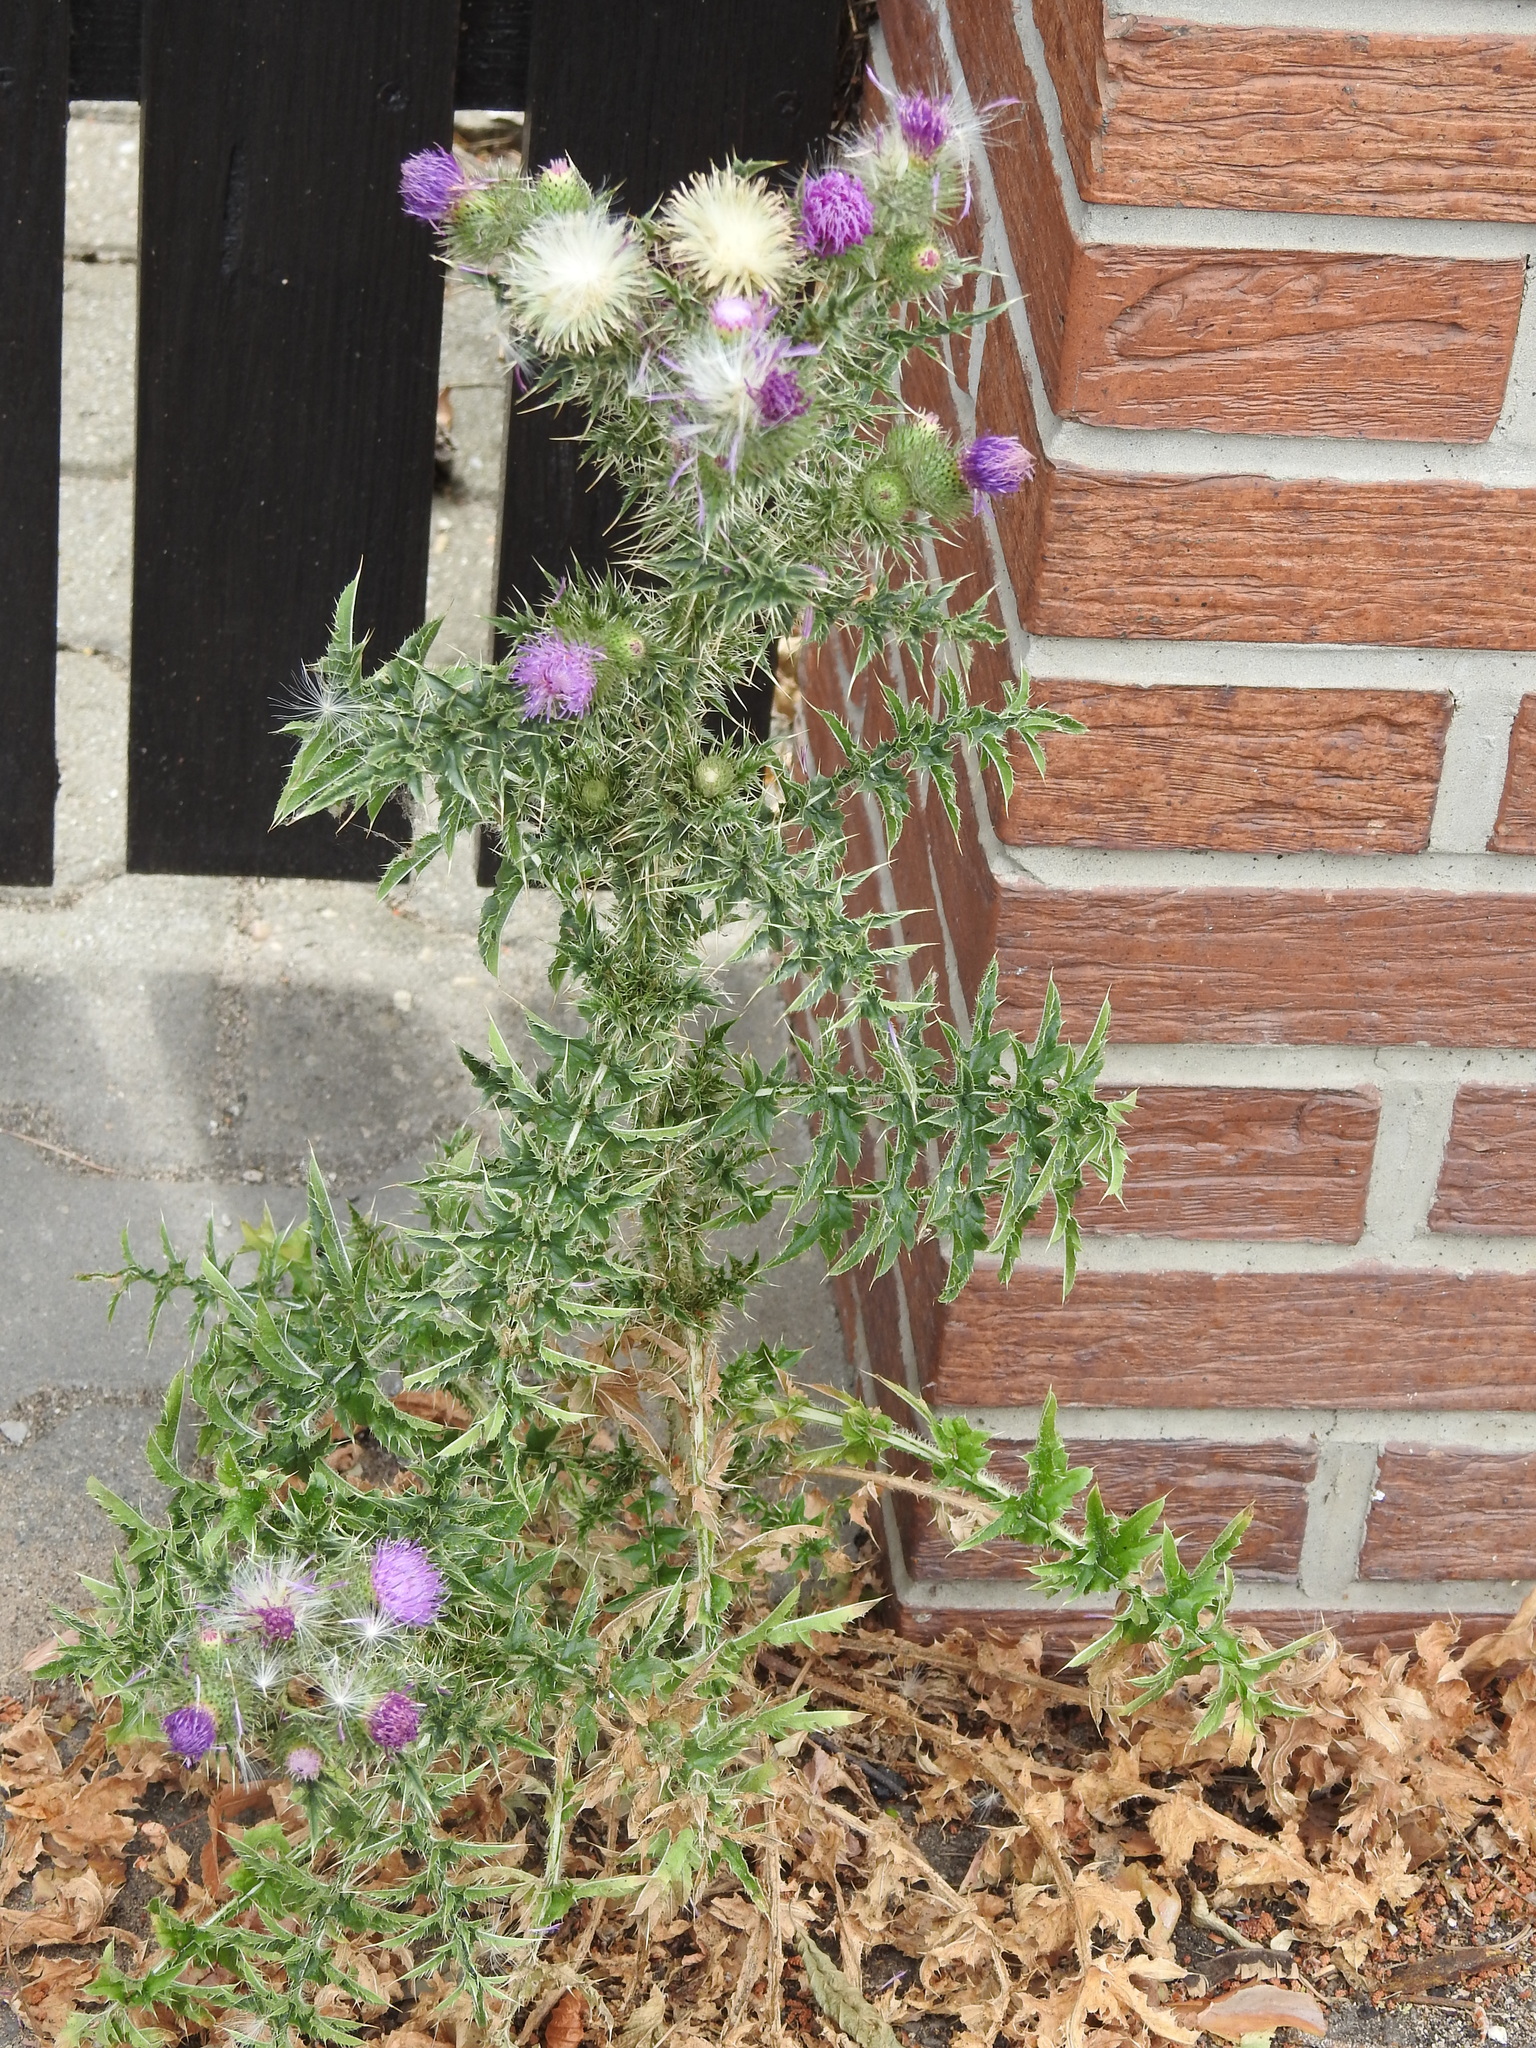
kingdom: Plantae
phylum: Tracheophyta
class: Magnoliopsida
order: Asterales
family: Asteraceae
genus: Carduus
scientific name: Carduus acanthoides
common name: Plumeless thistle
